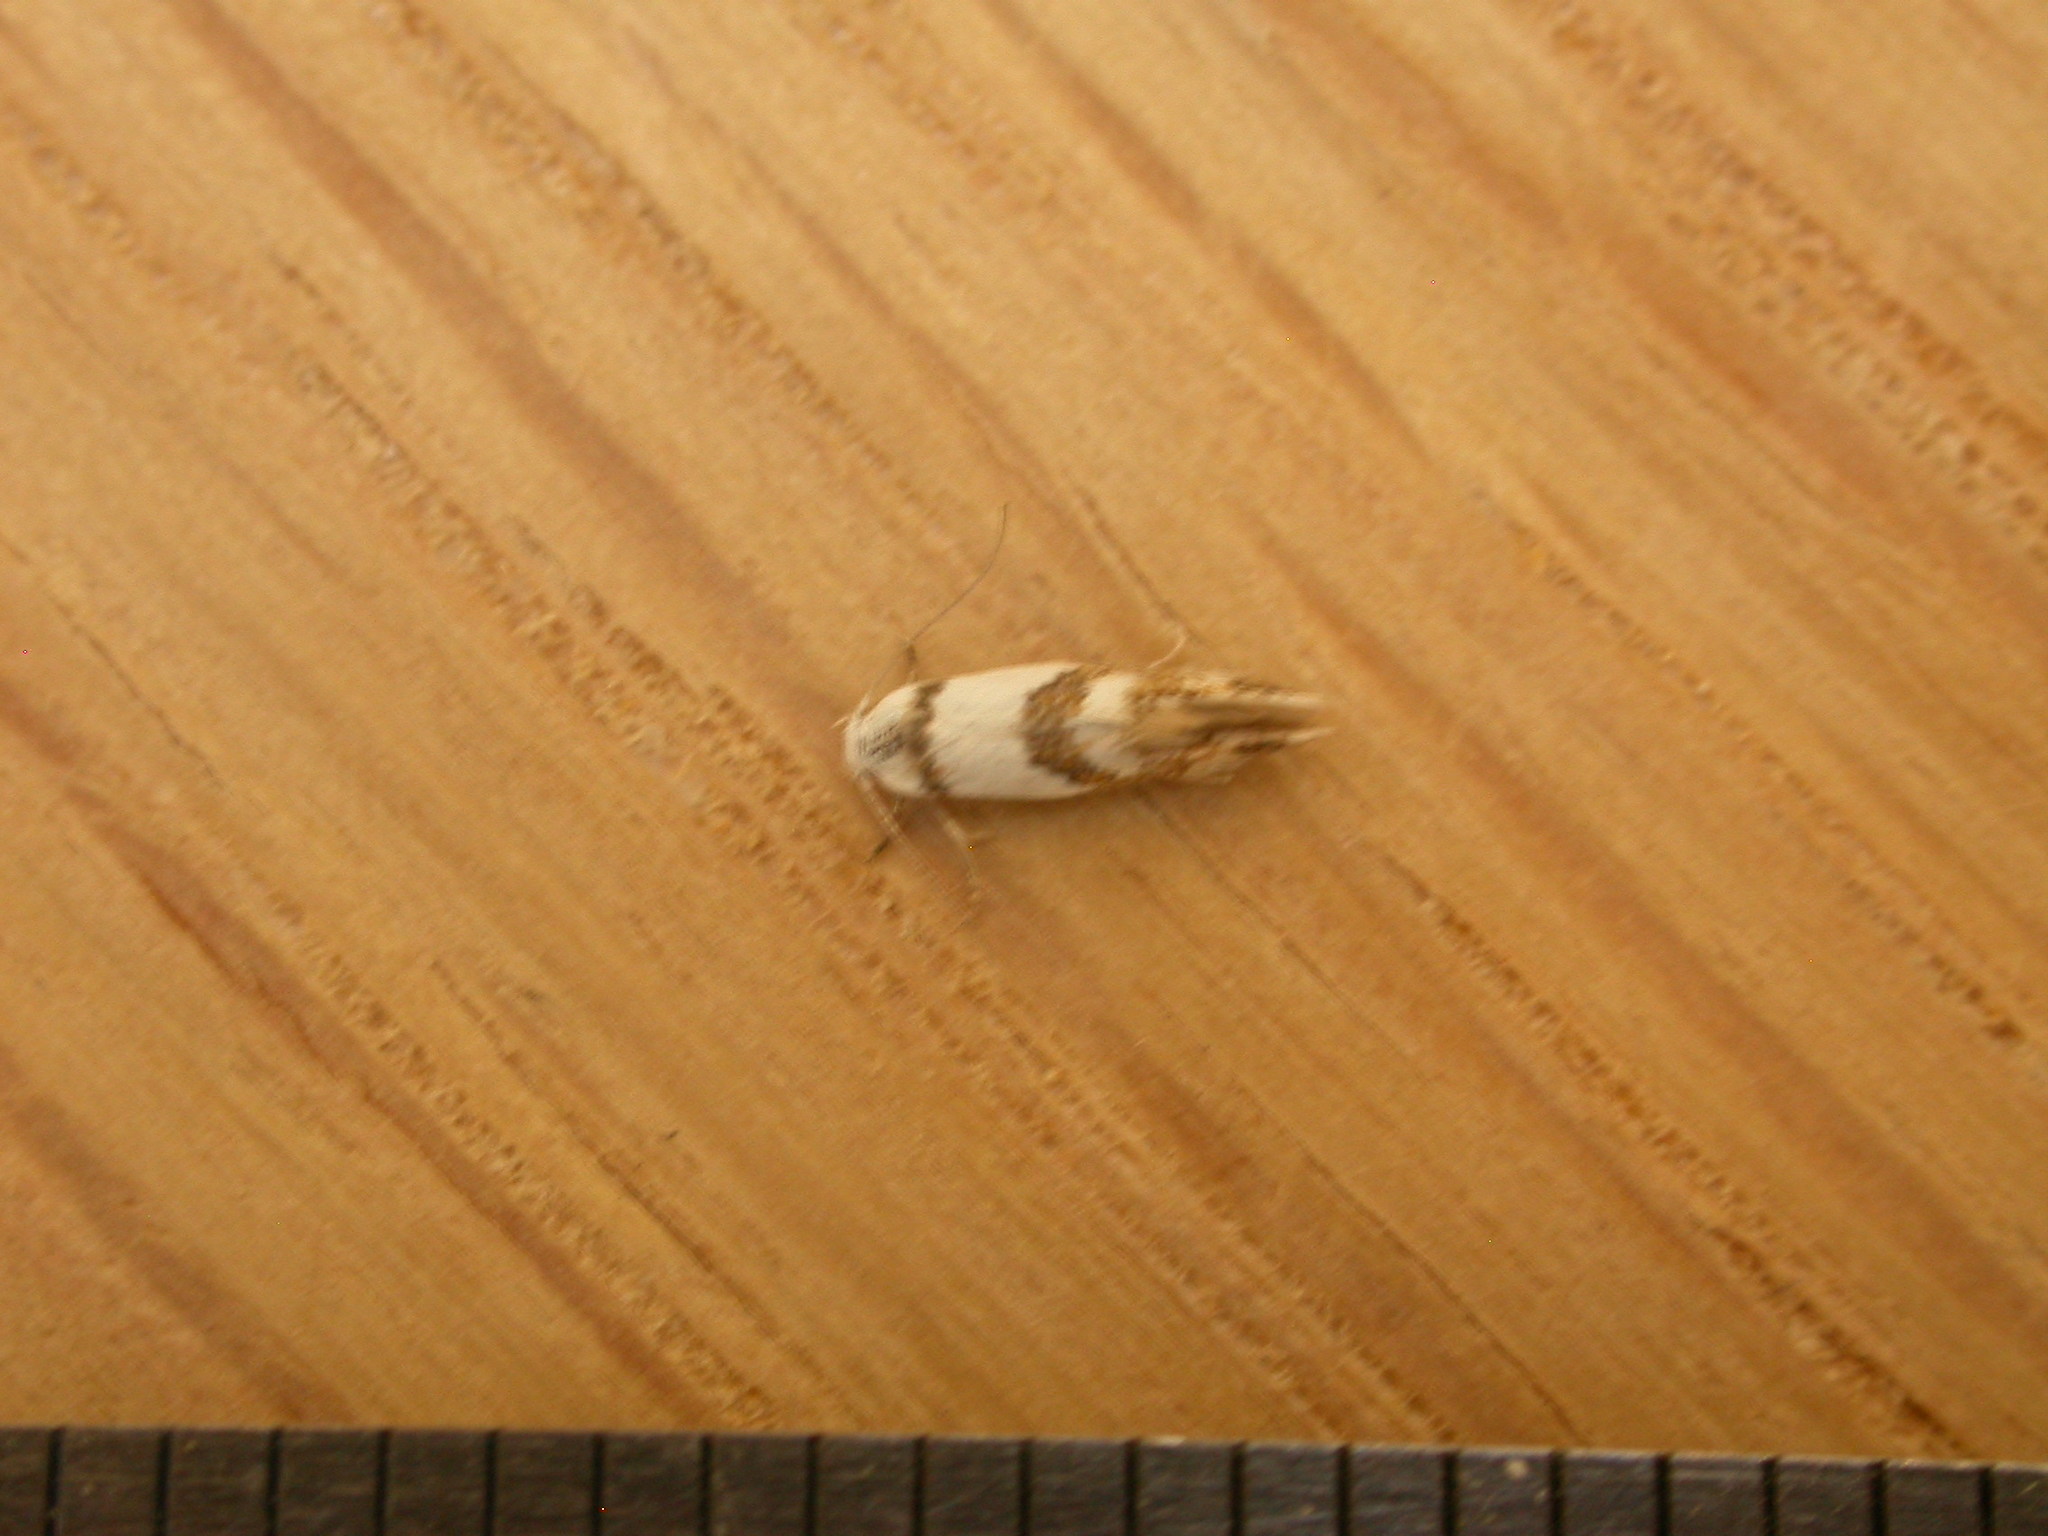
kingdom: Animalia
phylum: Arthropoda
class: Insecta
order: Lepidoptera
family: Oecophoridae
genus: Notodryas
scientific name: Notodryas vallata
